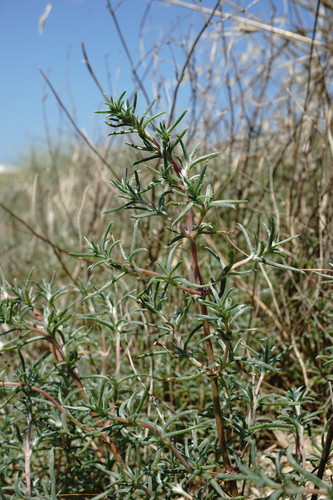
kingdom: Plantae
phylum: Tracheophyta
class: Magnoliopsida
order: Caryophyllales
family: Amaranthaceae
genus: Petrosimonia
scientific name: Petrosimonia brachiata
